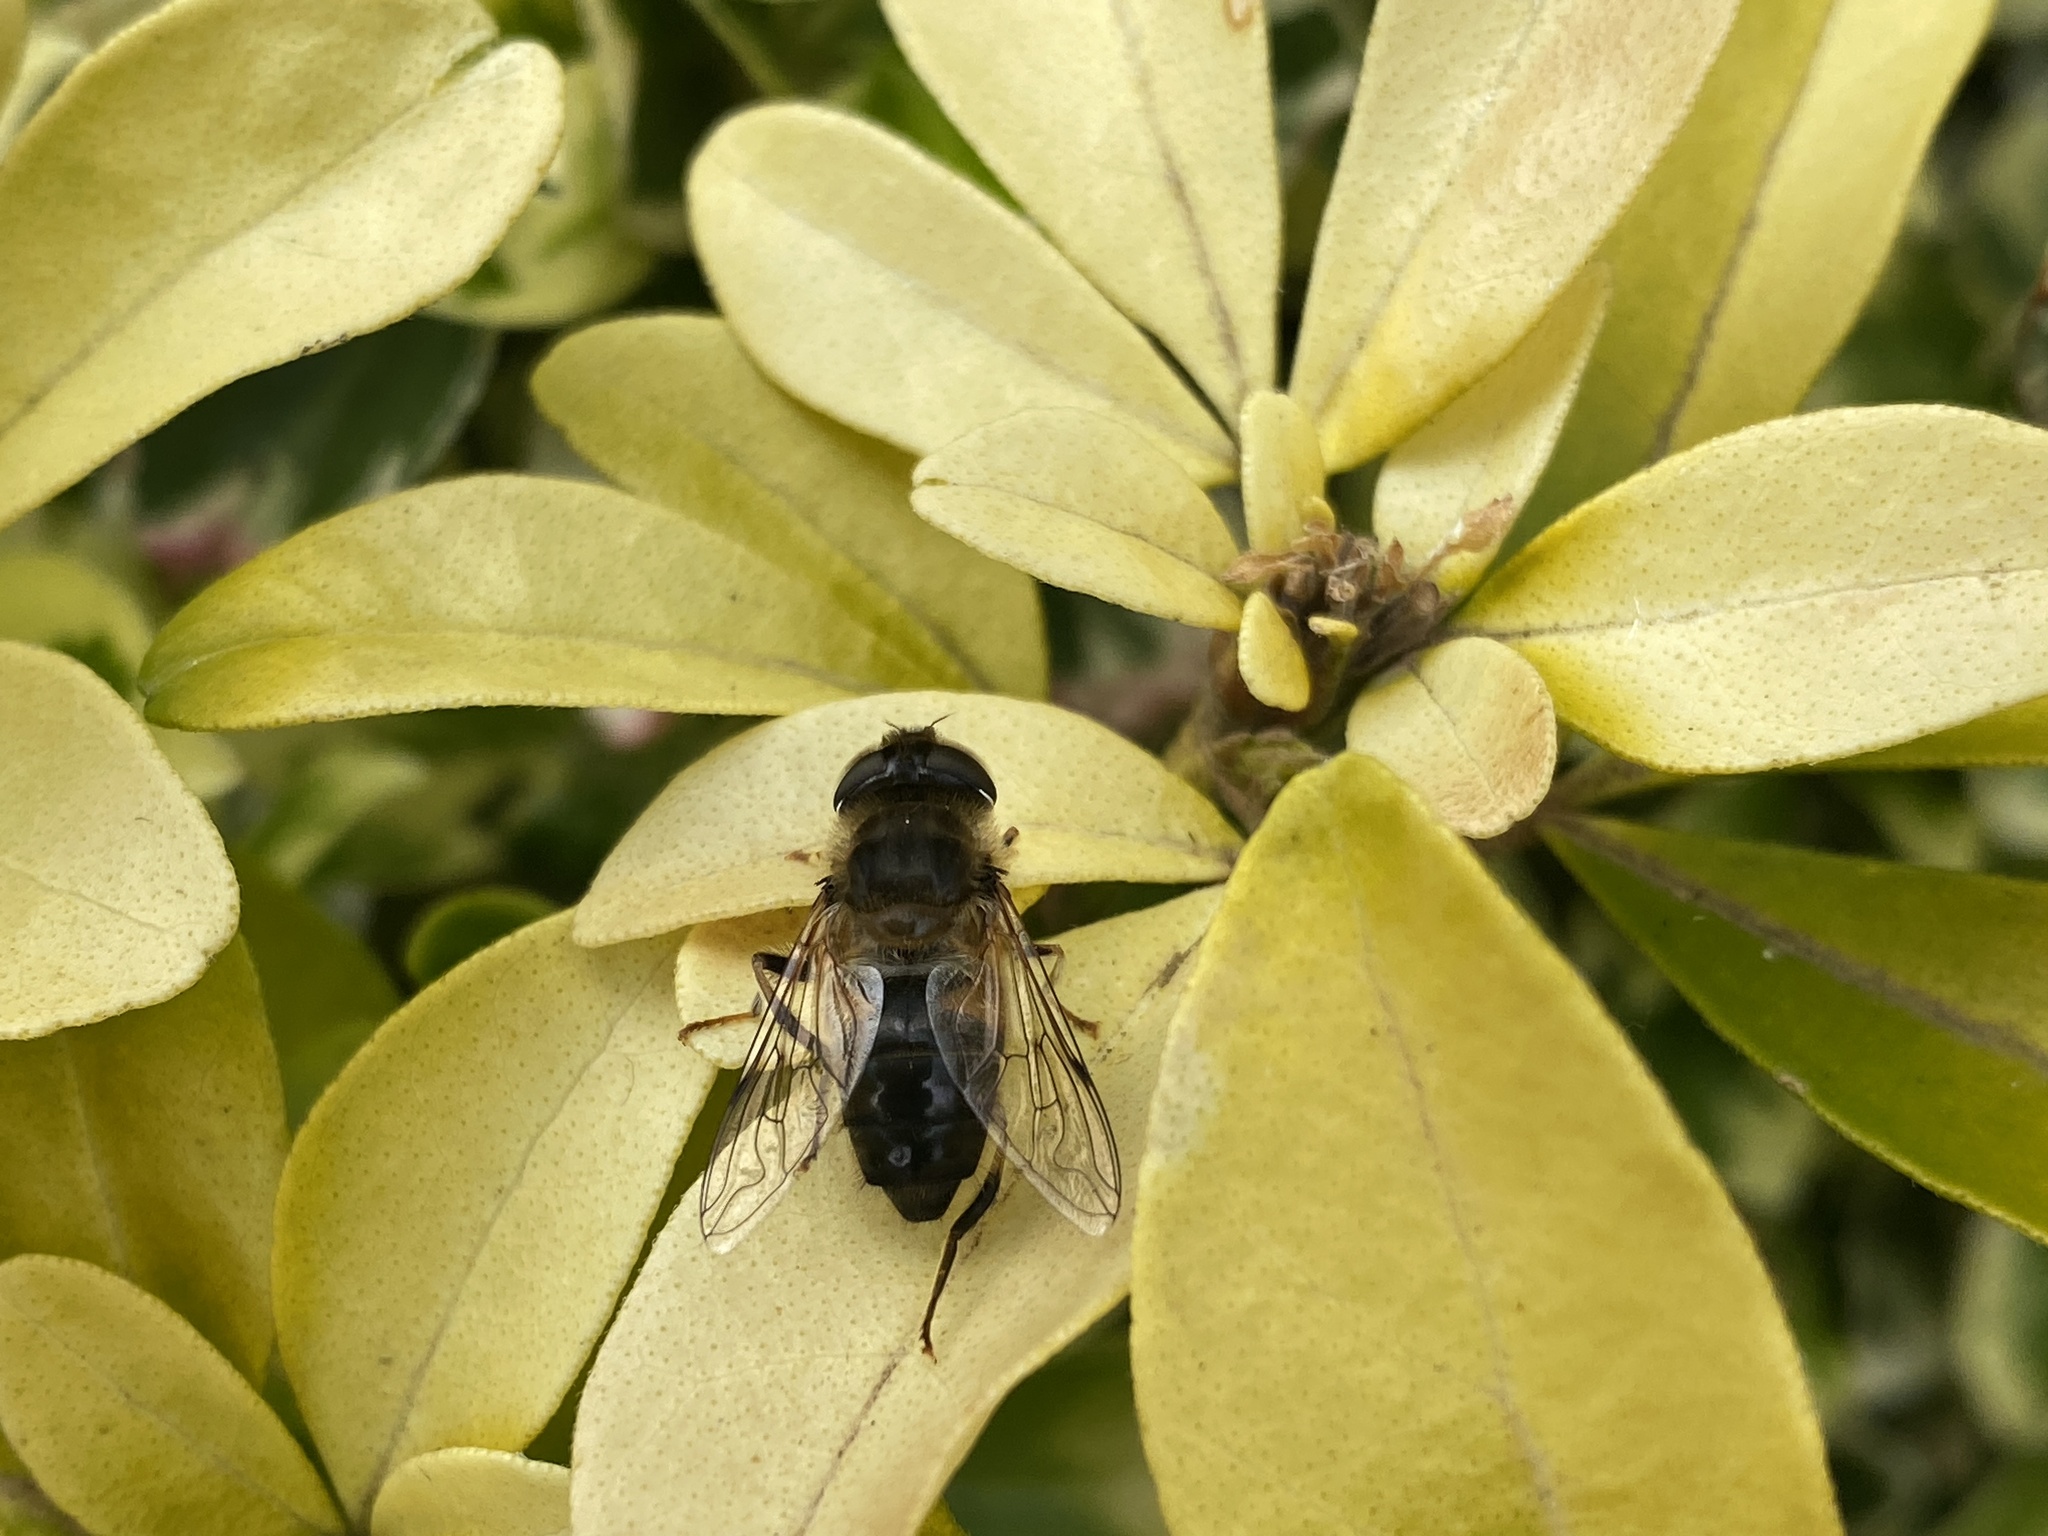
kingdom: Animalia
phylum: Arthropoda
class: Insecta
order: Diptera
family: Syrphidae
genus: Eristalis
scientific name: Eristalis pertinax
